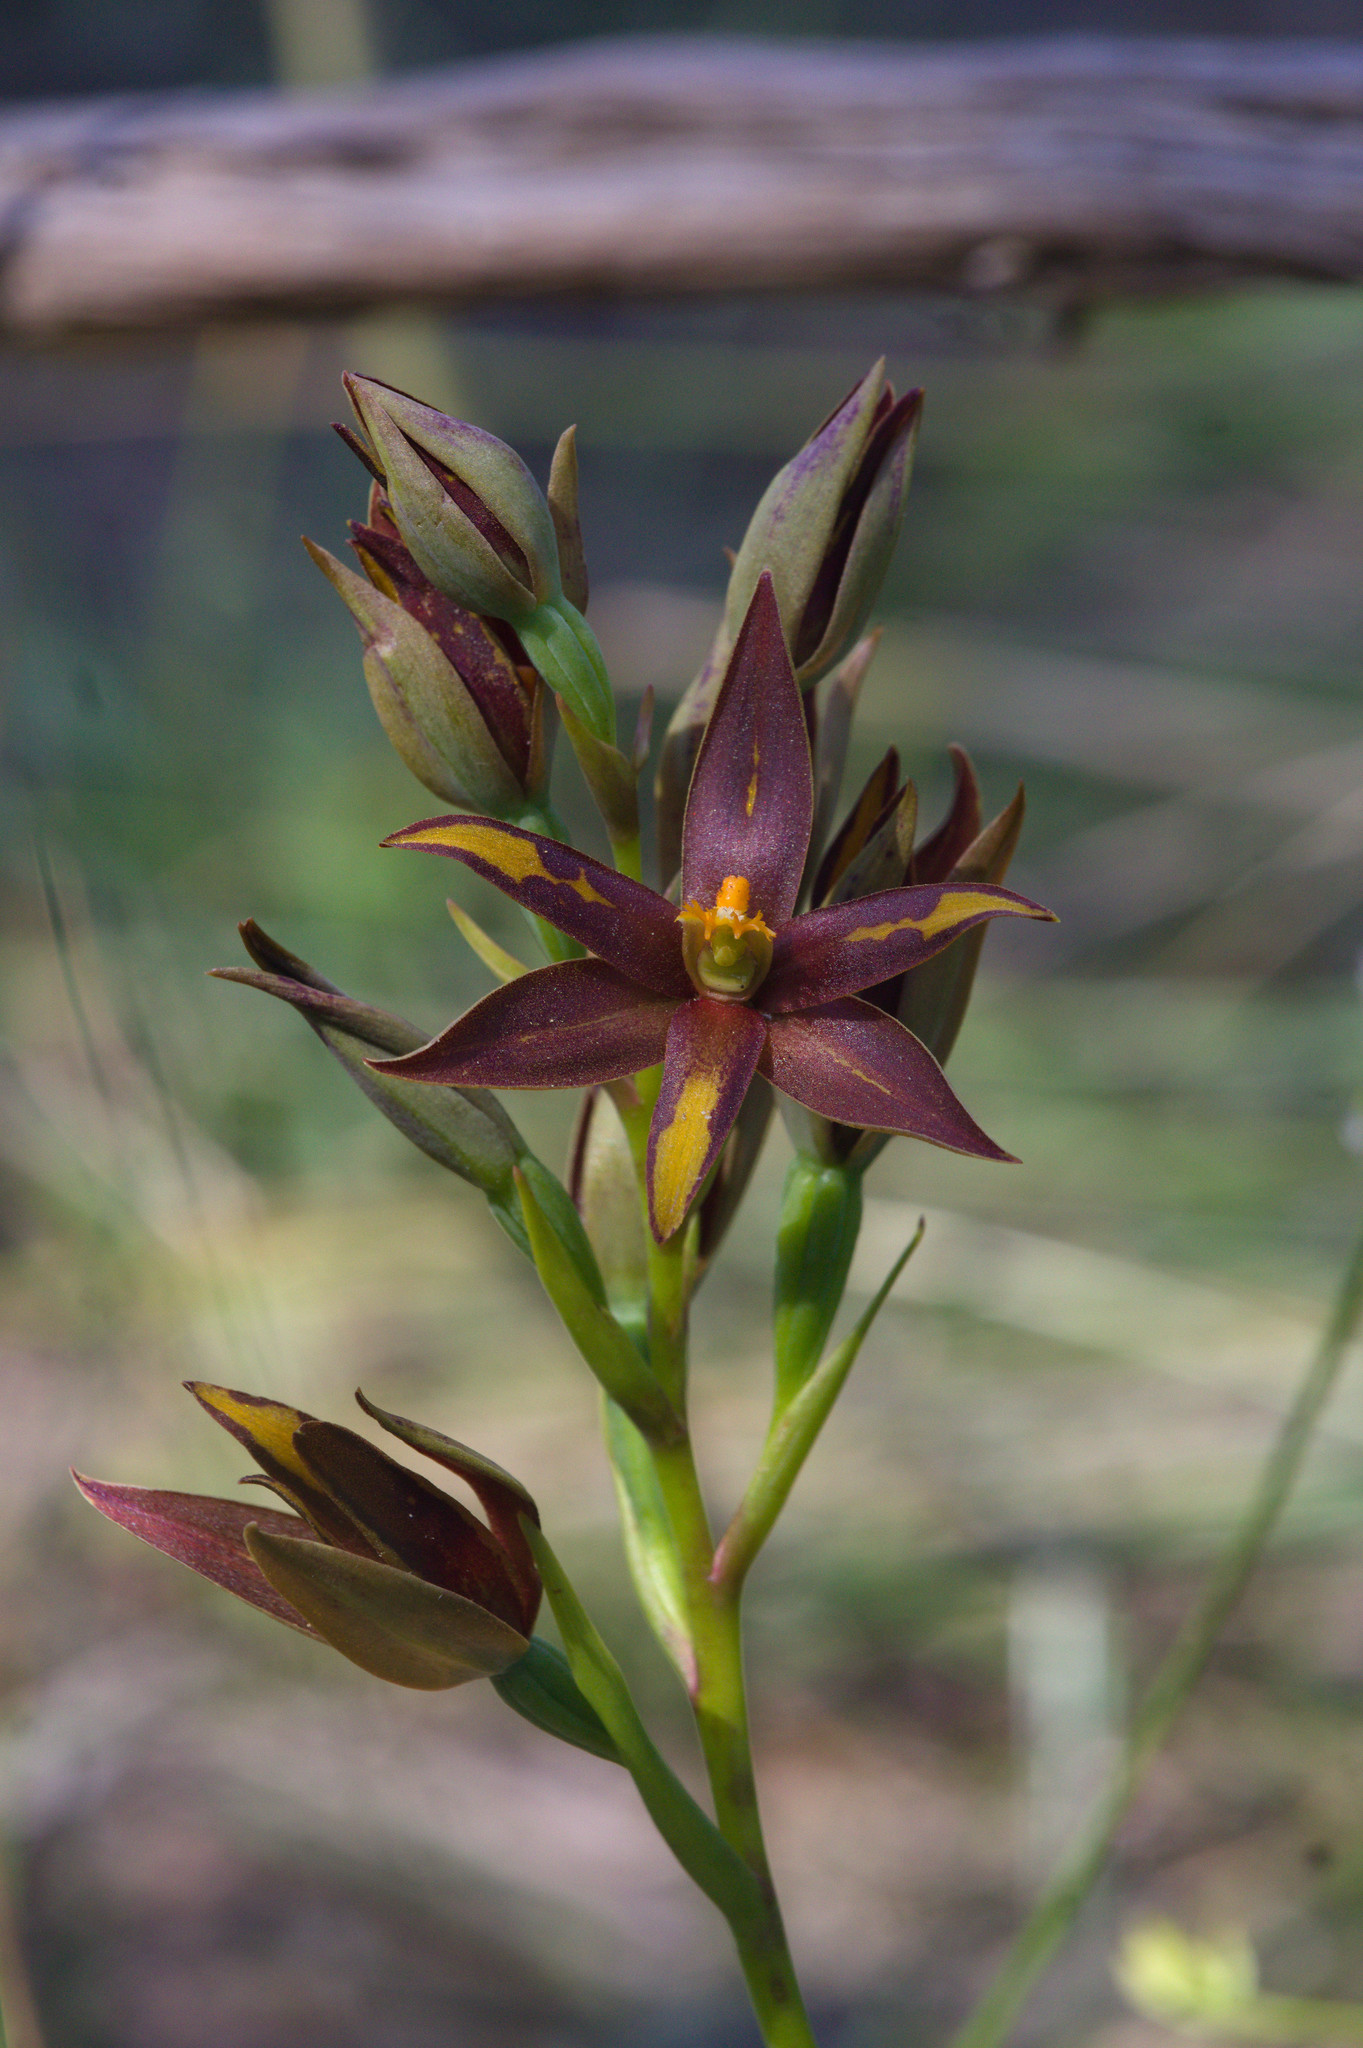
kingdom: Plantae
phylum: Tracheophyta
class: Liliopsida
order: Asparagales
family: Orchidaceae
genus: Thelymitra
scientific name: Thelymitra magnifica
